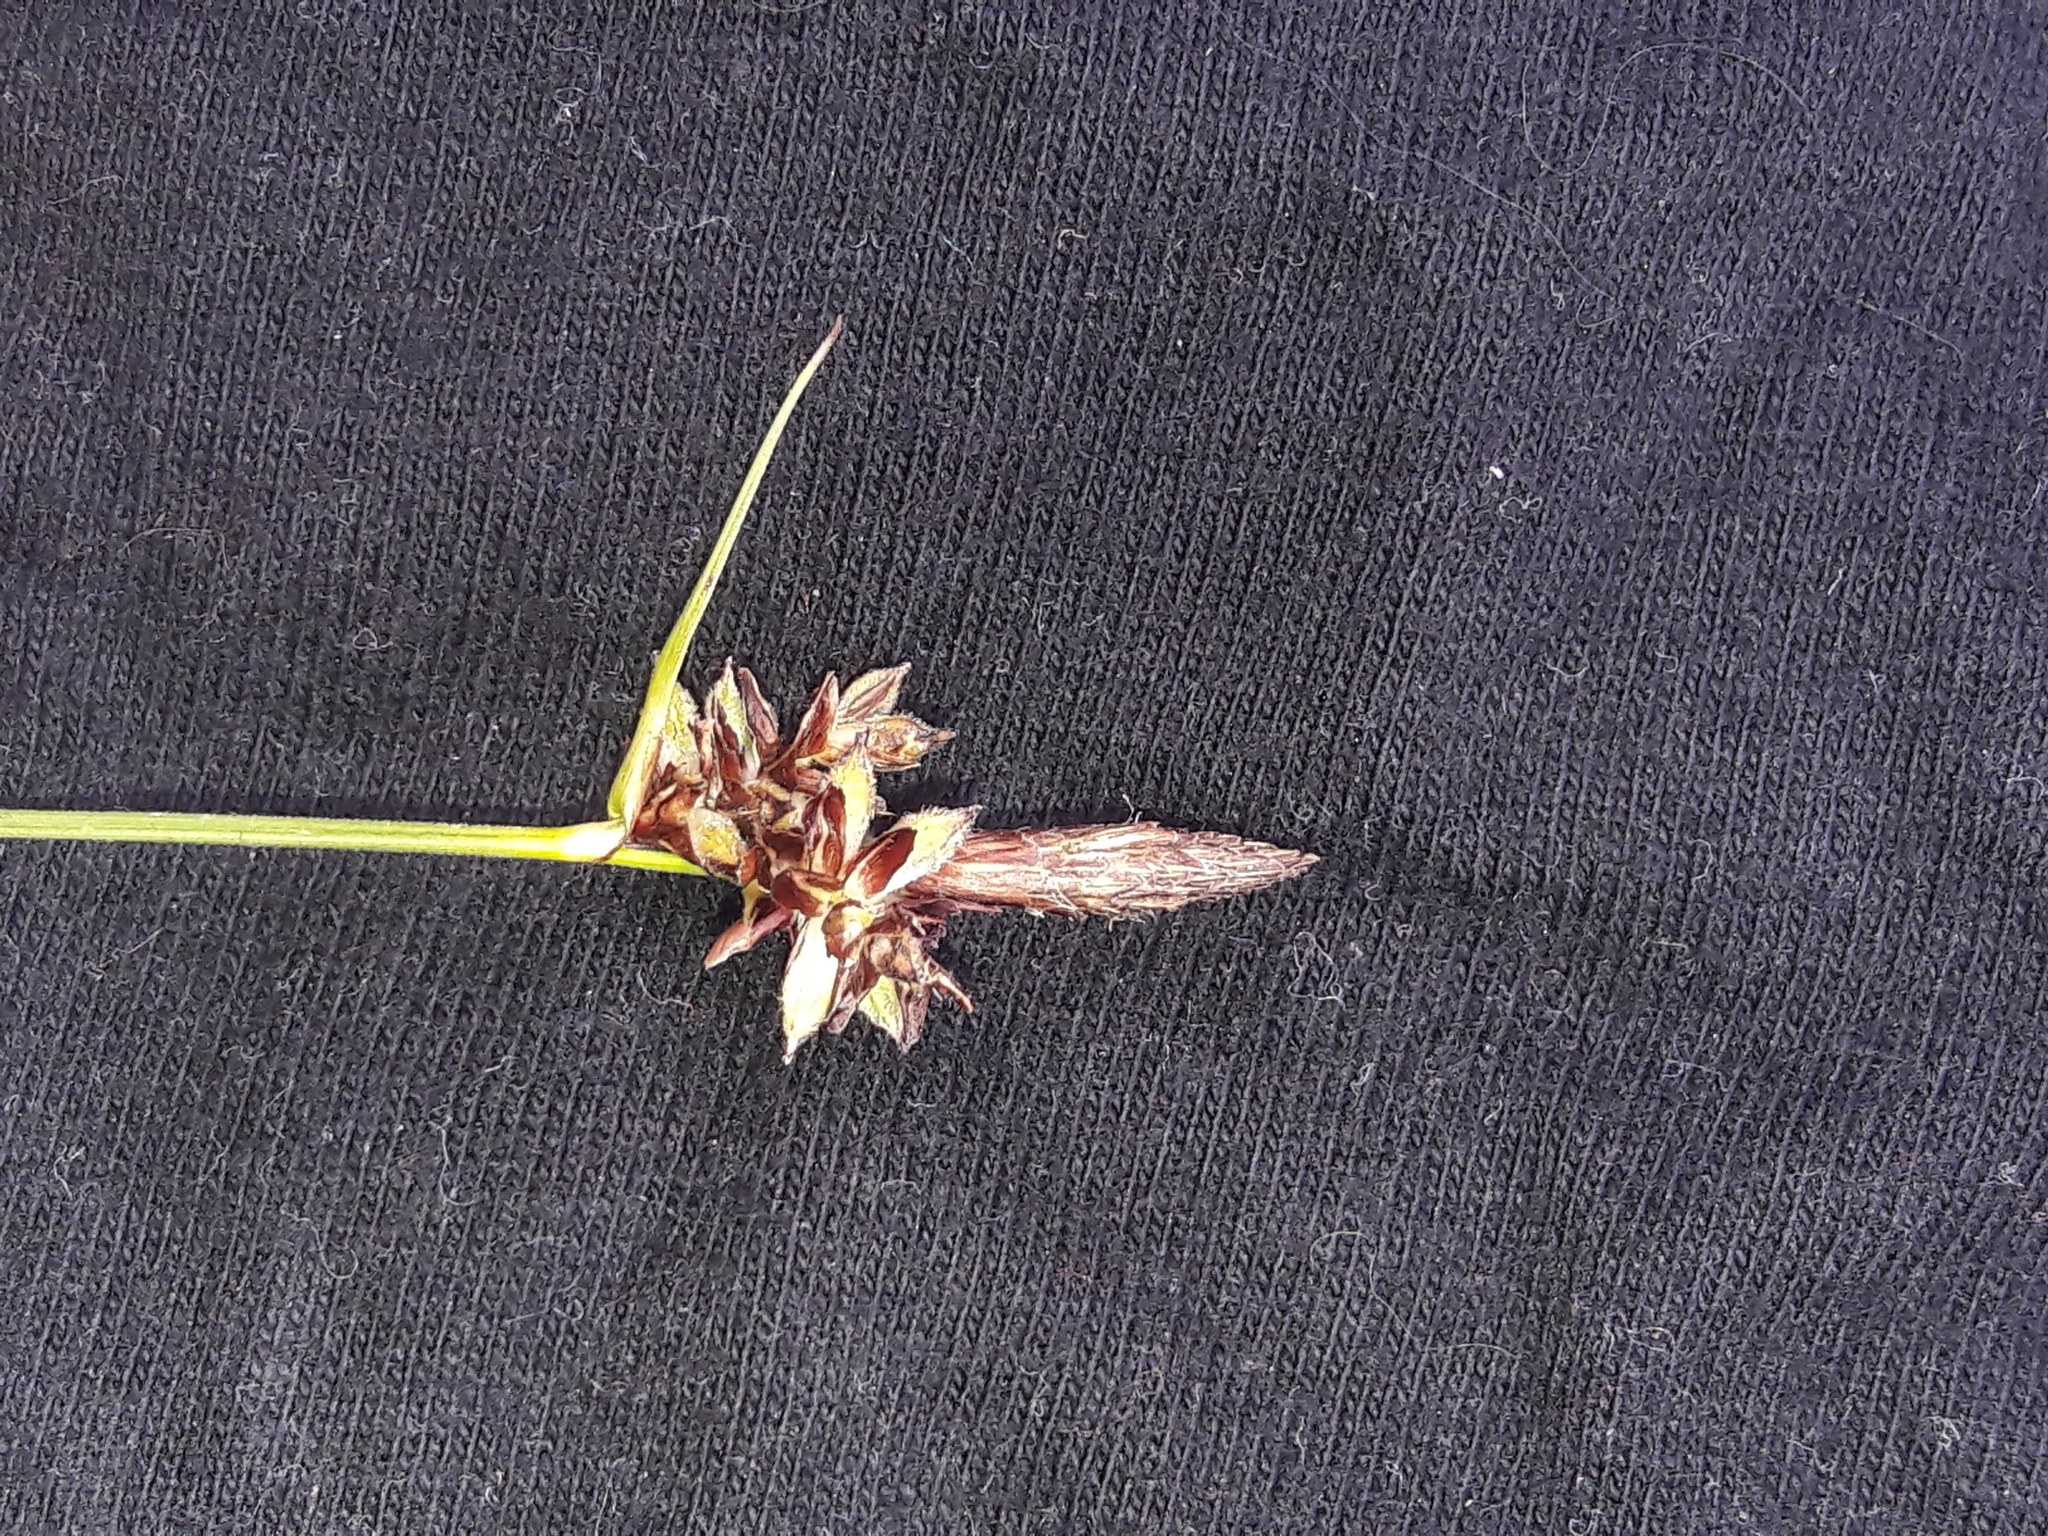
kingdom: Plantae
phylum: Tracheophyta
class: Liliopsida
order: Poales
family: Cyperaceae
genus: Carex
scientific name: Carex montana
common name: Soft-leaved sedge
